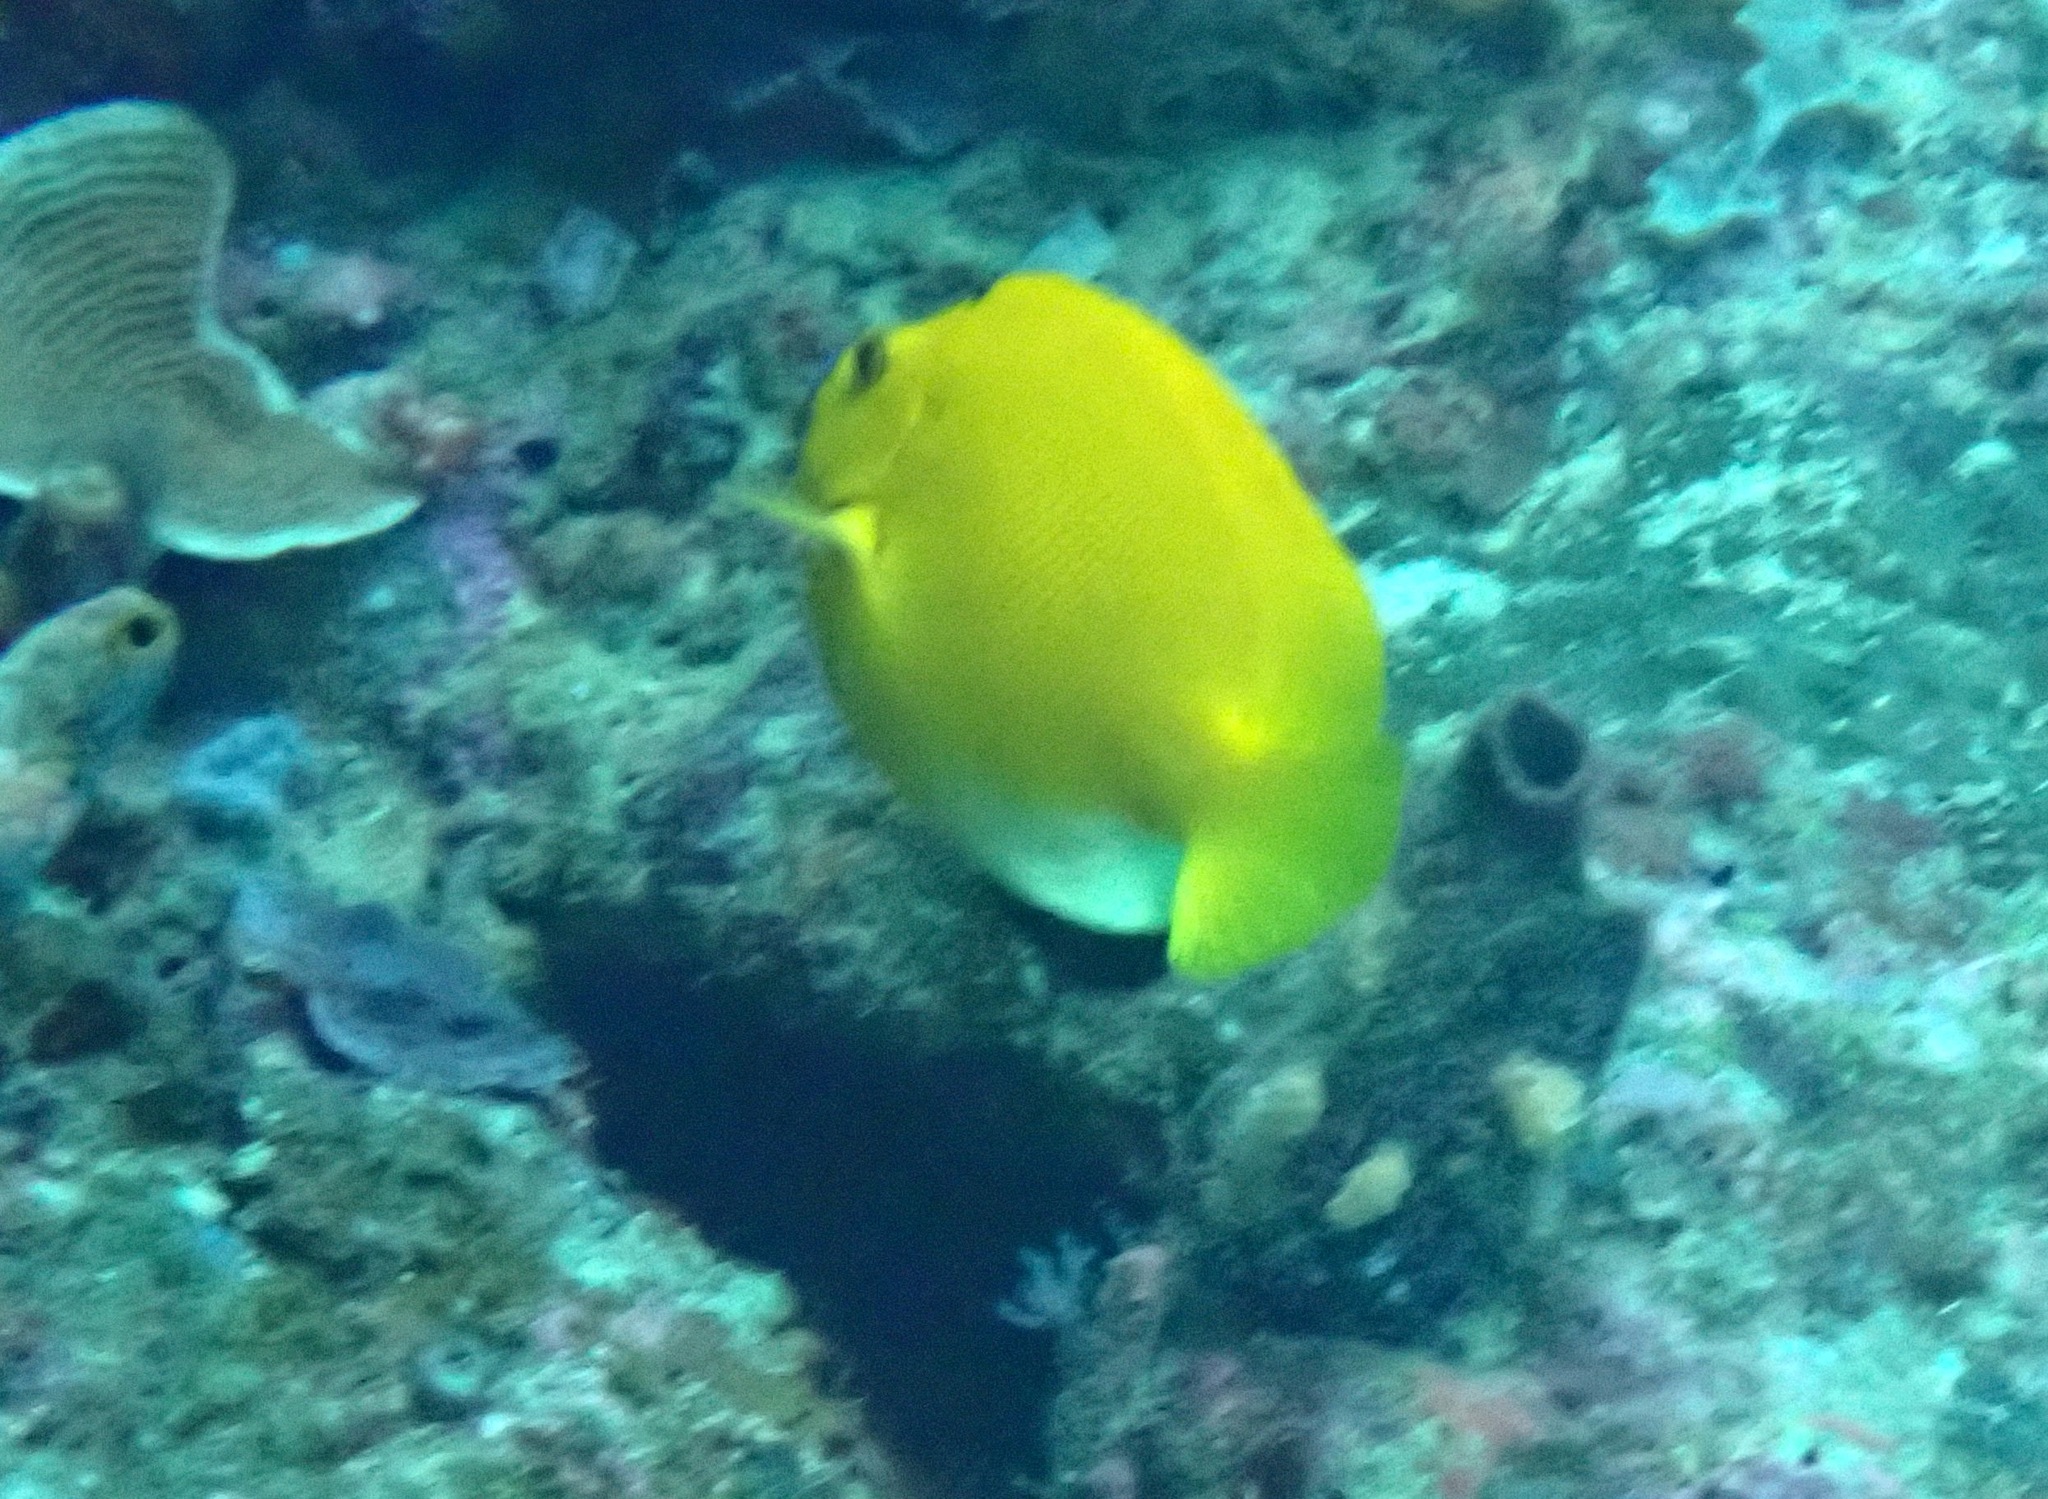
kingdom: Animalia
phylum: Chordata
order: Perciformes
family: Pomacanthidae
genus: Apolemichthys
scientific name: Apolemichthys trimaculatus
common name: Threespot angelfish
